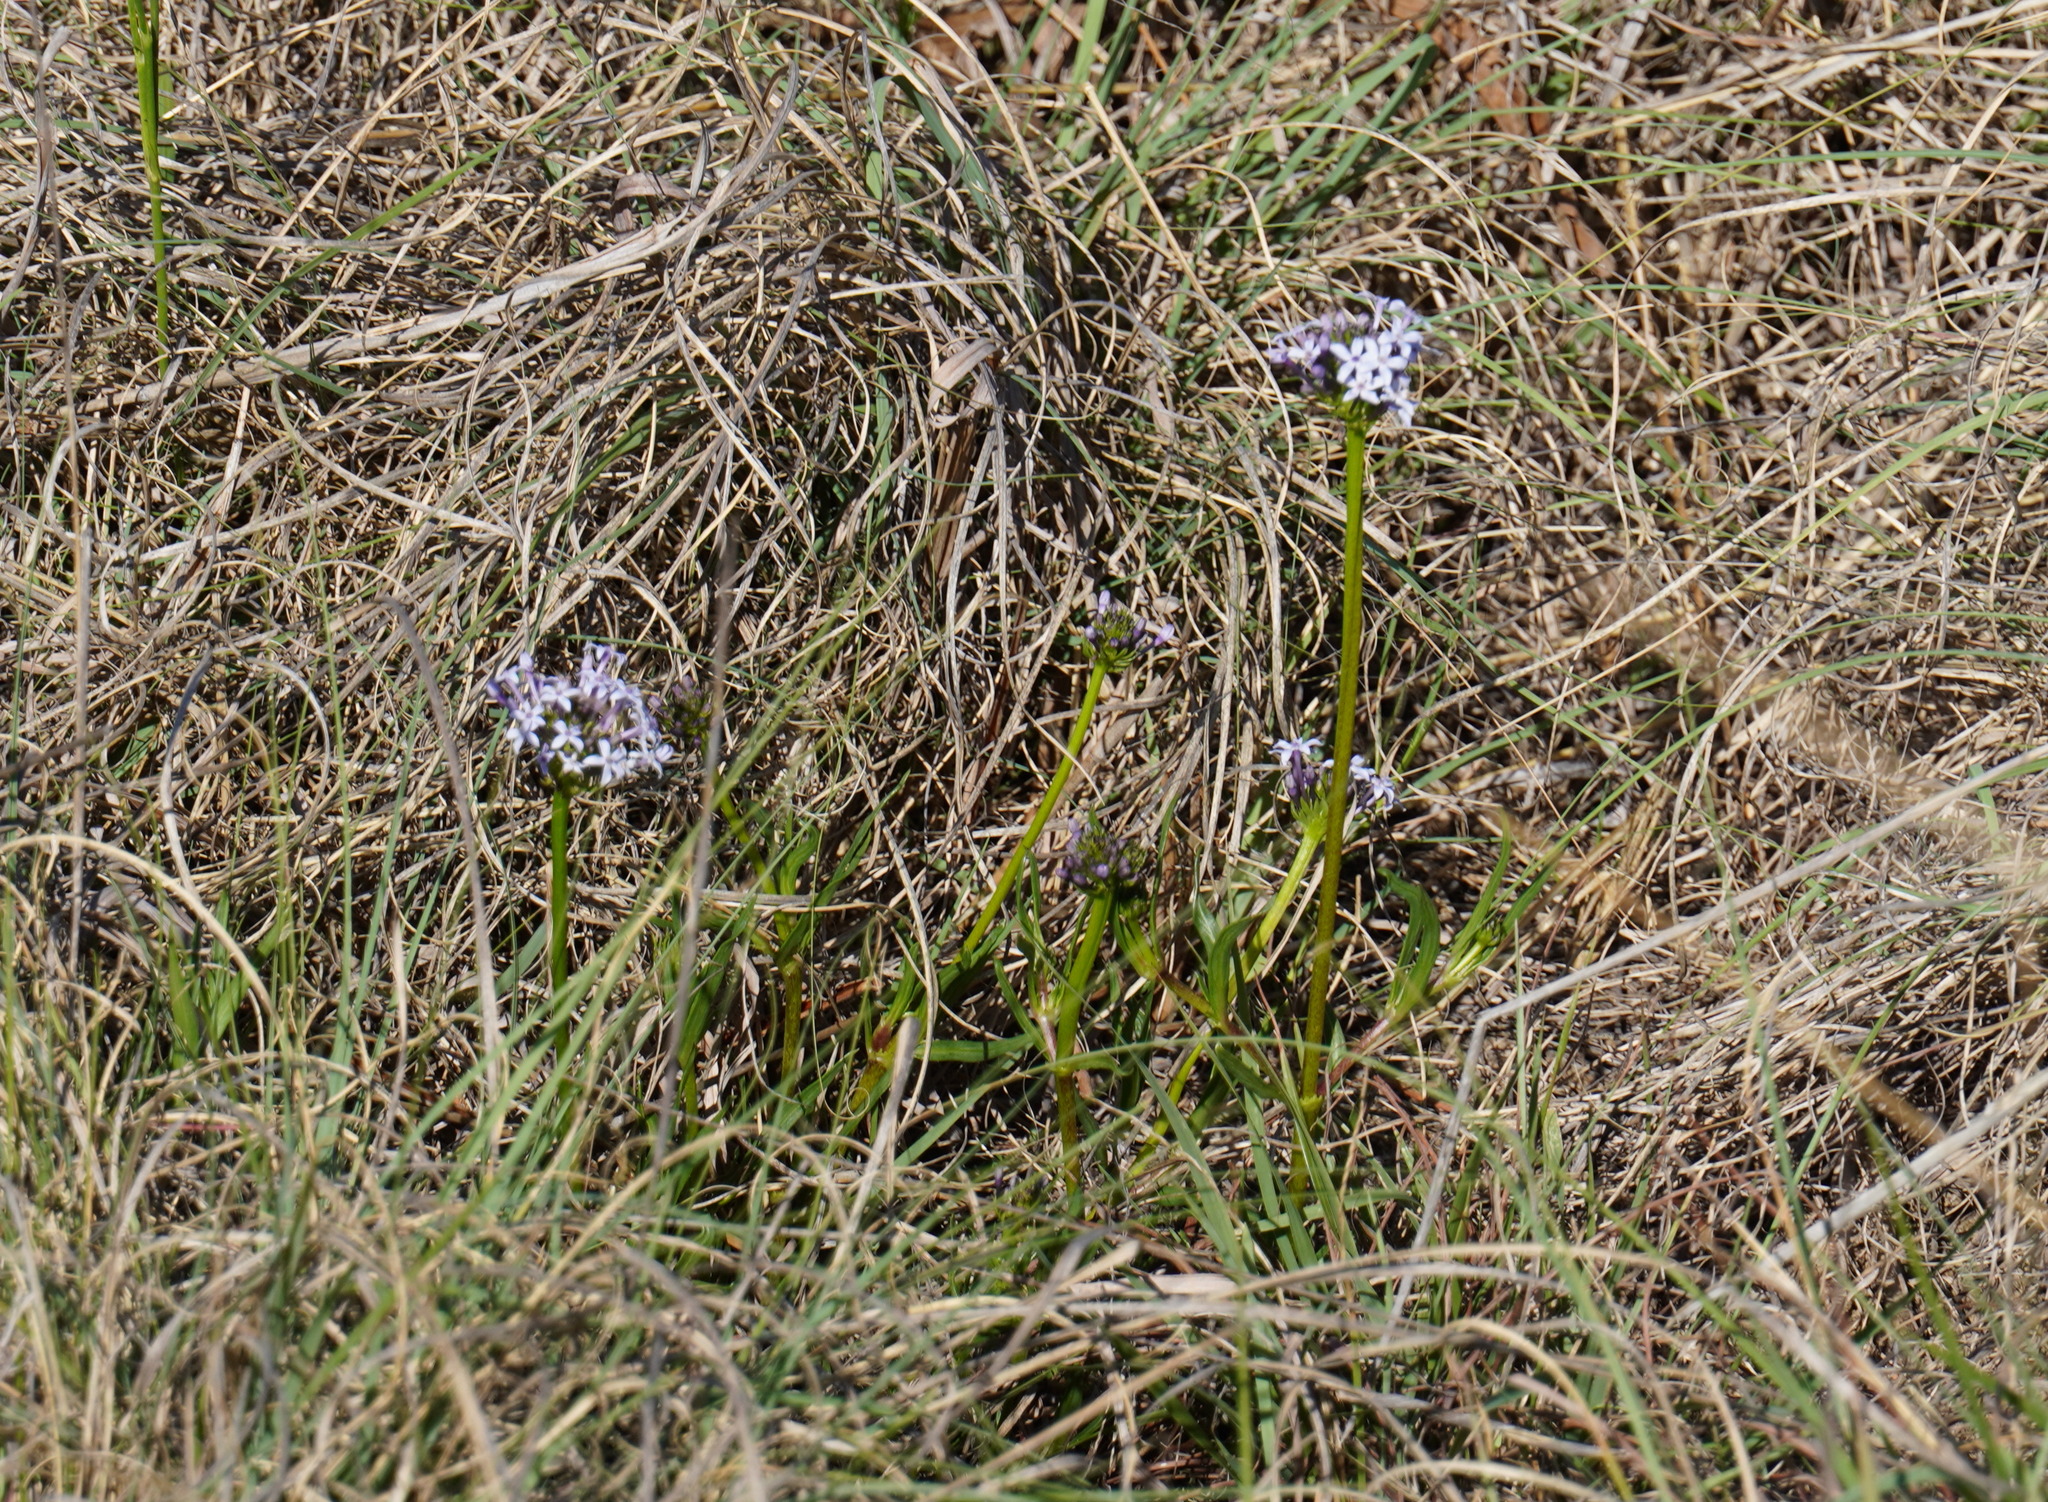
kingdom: Plantae
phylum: Tracheophyta
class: Magnoliopsida
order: Gentianales
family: Rubiaceae
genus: Pentanisia
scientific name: Pentanisia angustifolia
